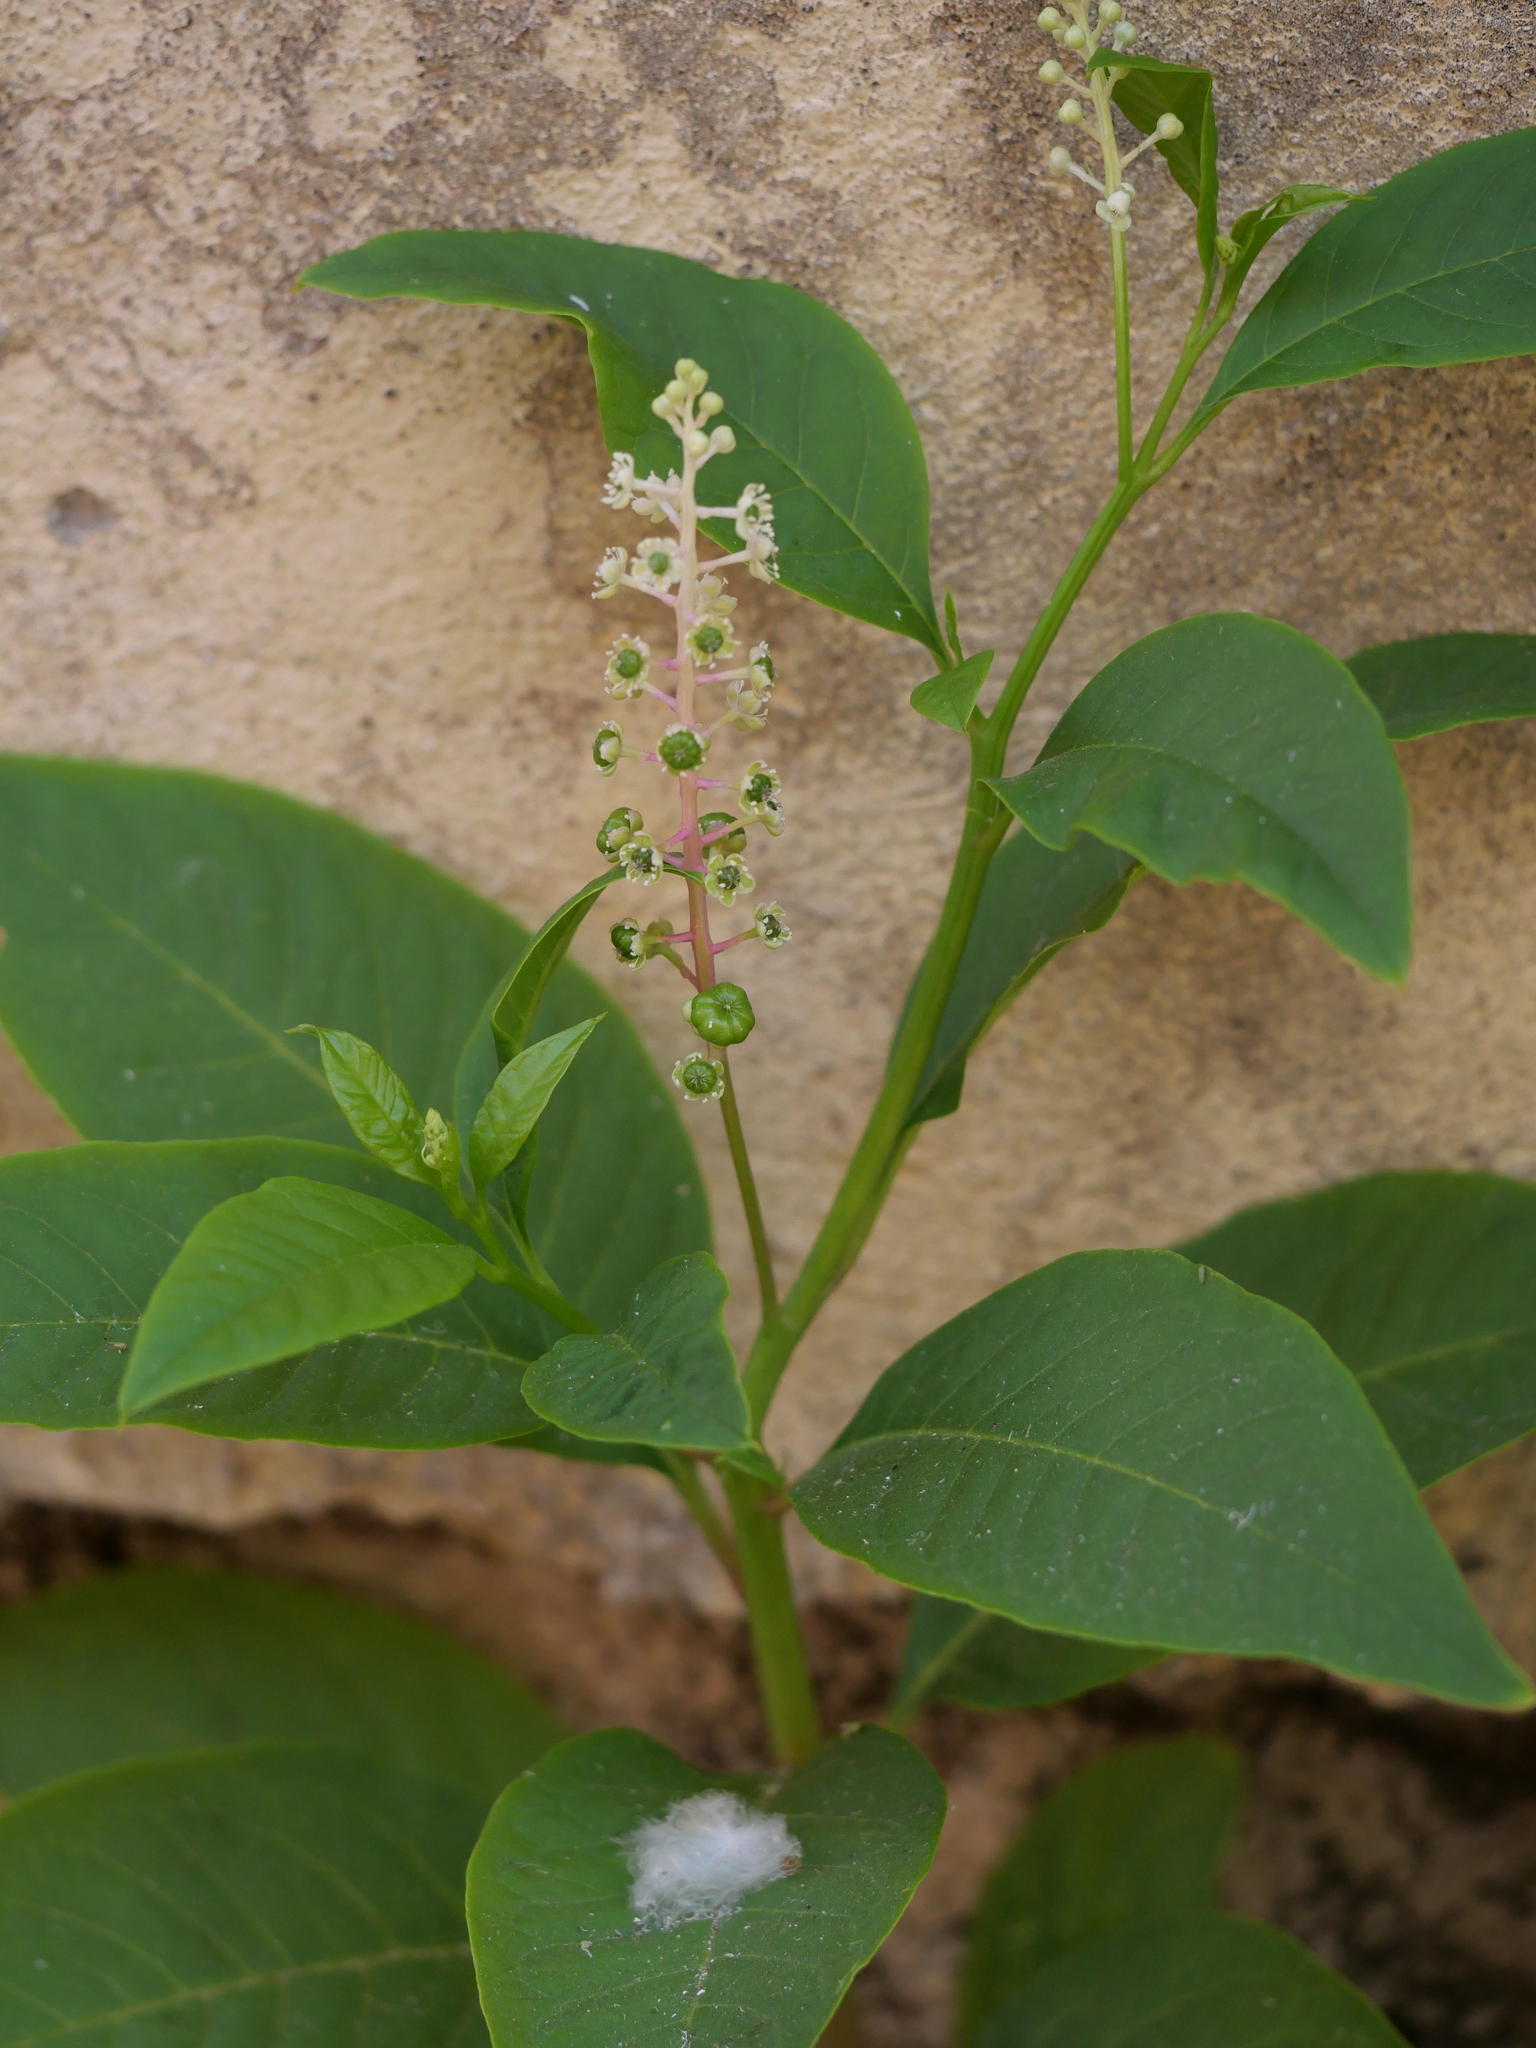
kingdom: Plantae
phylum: Tracheophyta
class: Magnoliopsida
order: Caryophyllales
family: Phytolaccaceae
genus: Phytolacca
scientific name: Phytolacca americana
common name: American pokeweed
